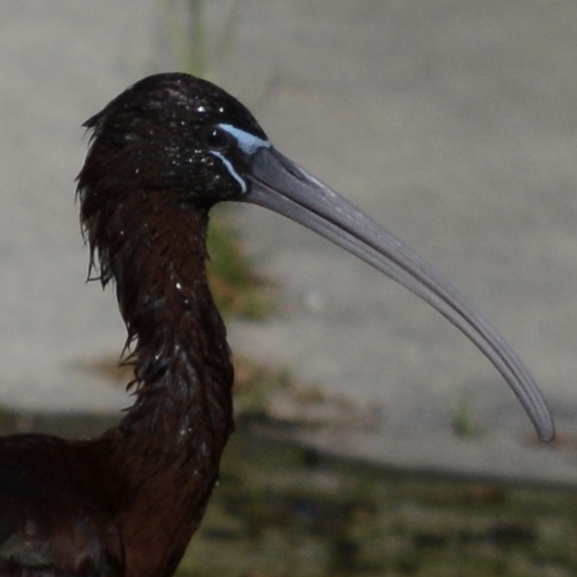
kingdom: Animalia
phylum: Chordata
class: Aves
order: Pelecaniformes
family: Threskiornithidae
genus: Plegadis
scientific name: Plegadis falcinellus
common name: Glossy ibis
